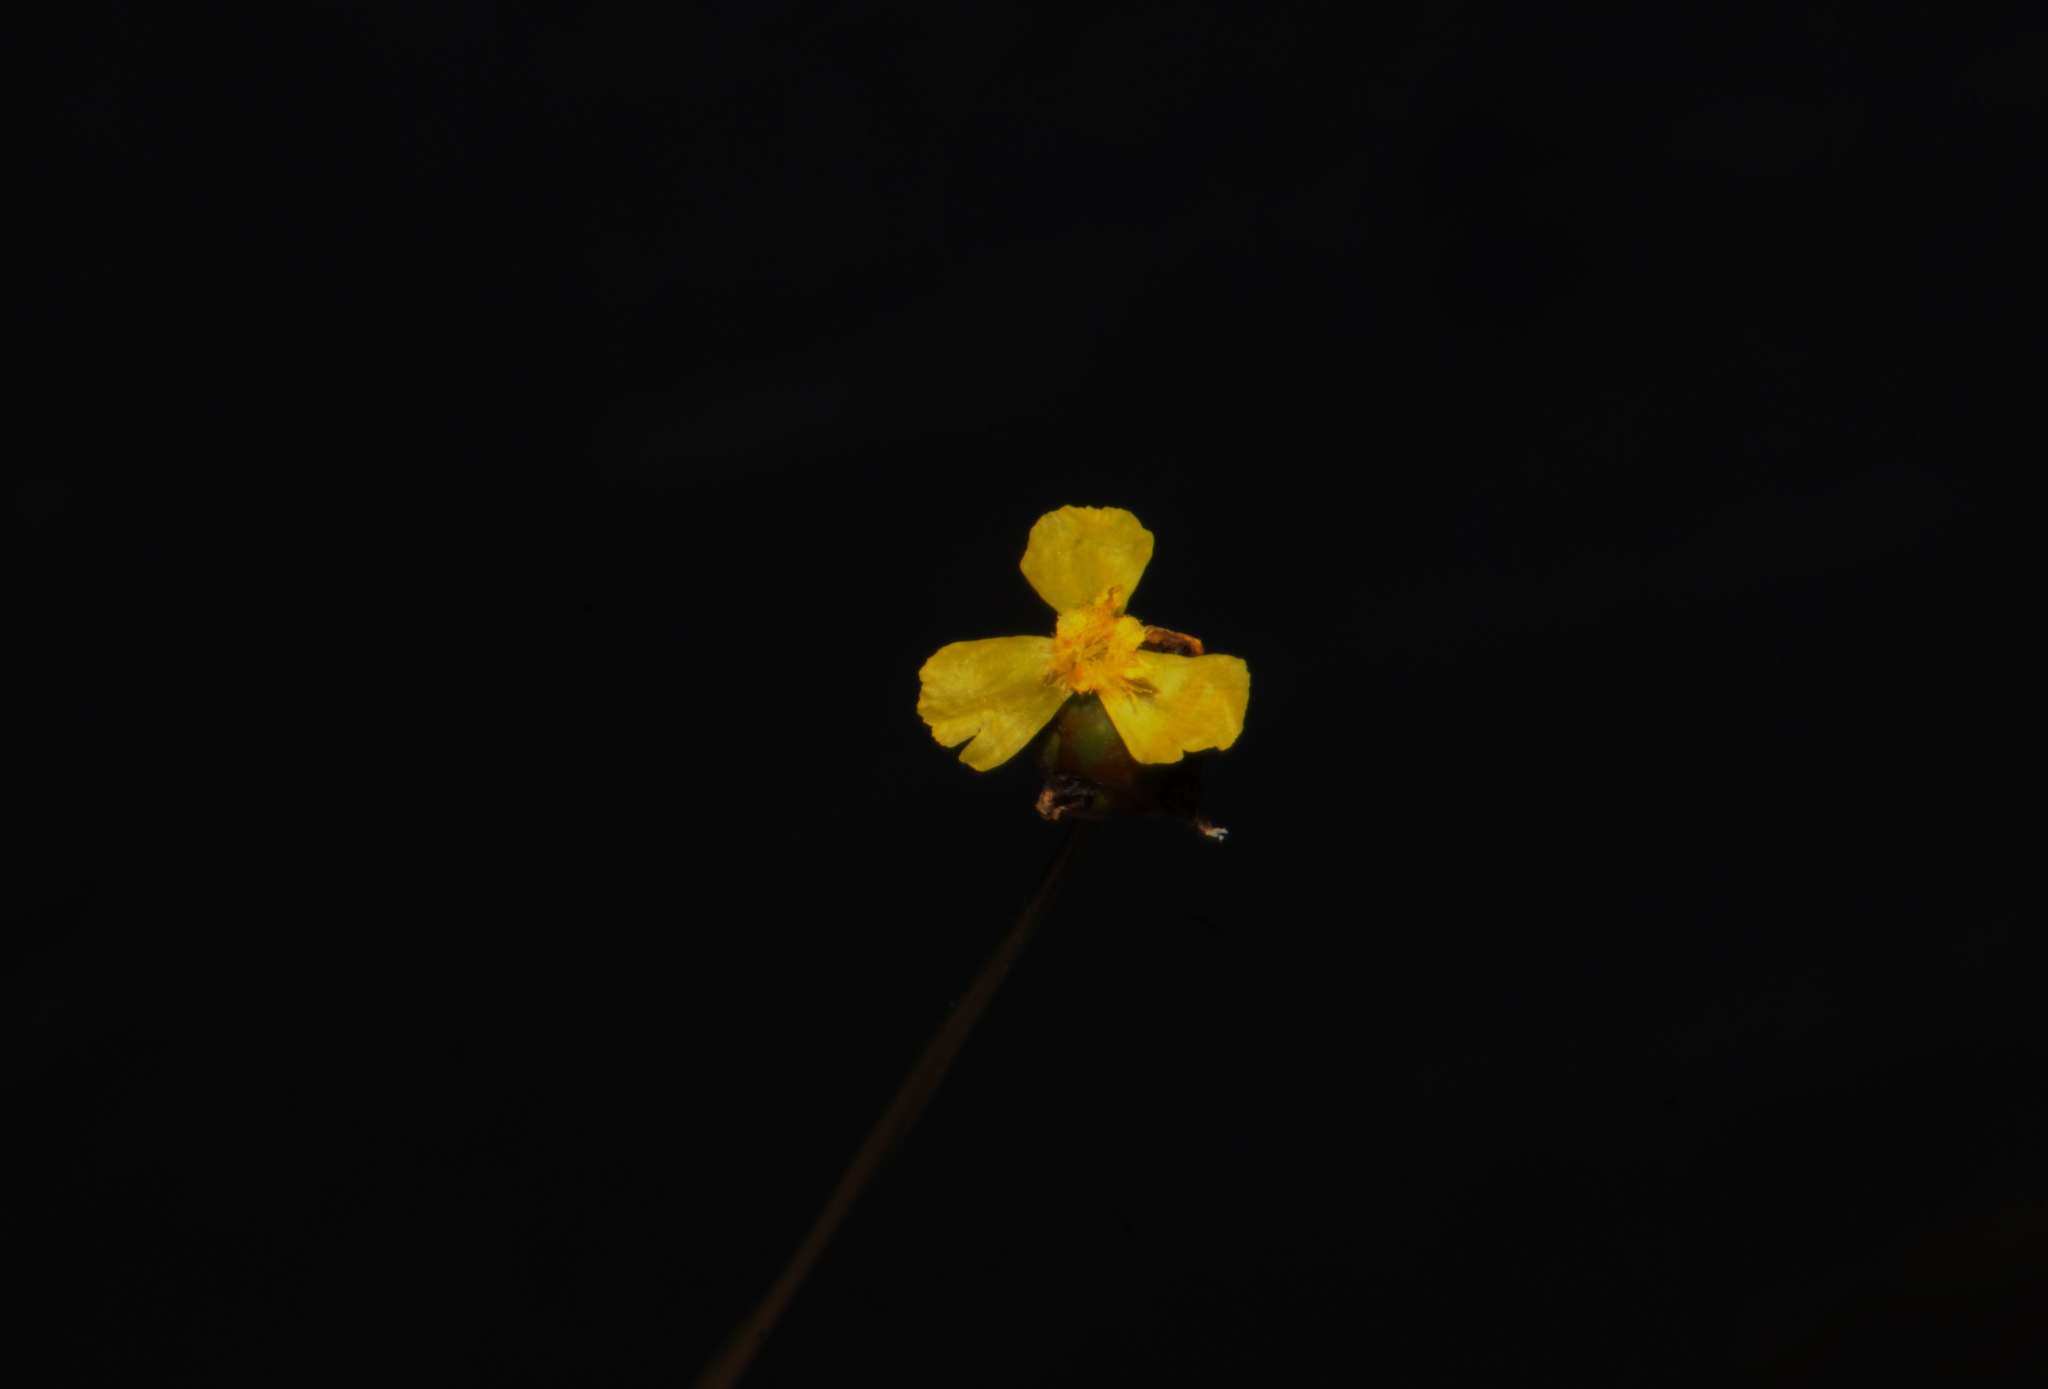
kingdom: Plantae
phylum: Tracheophyta
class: Liliopsida
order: Poales
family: Xyridaceae
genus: Xyris
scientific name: Xyris difformis
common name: Bog yellow-eyed-grass
